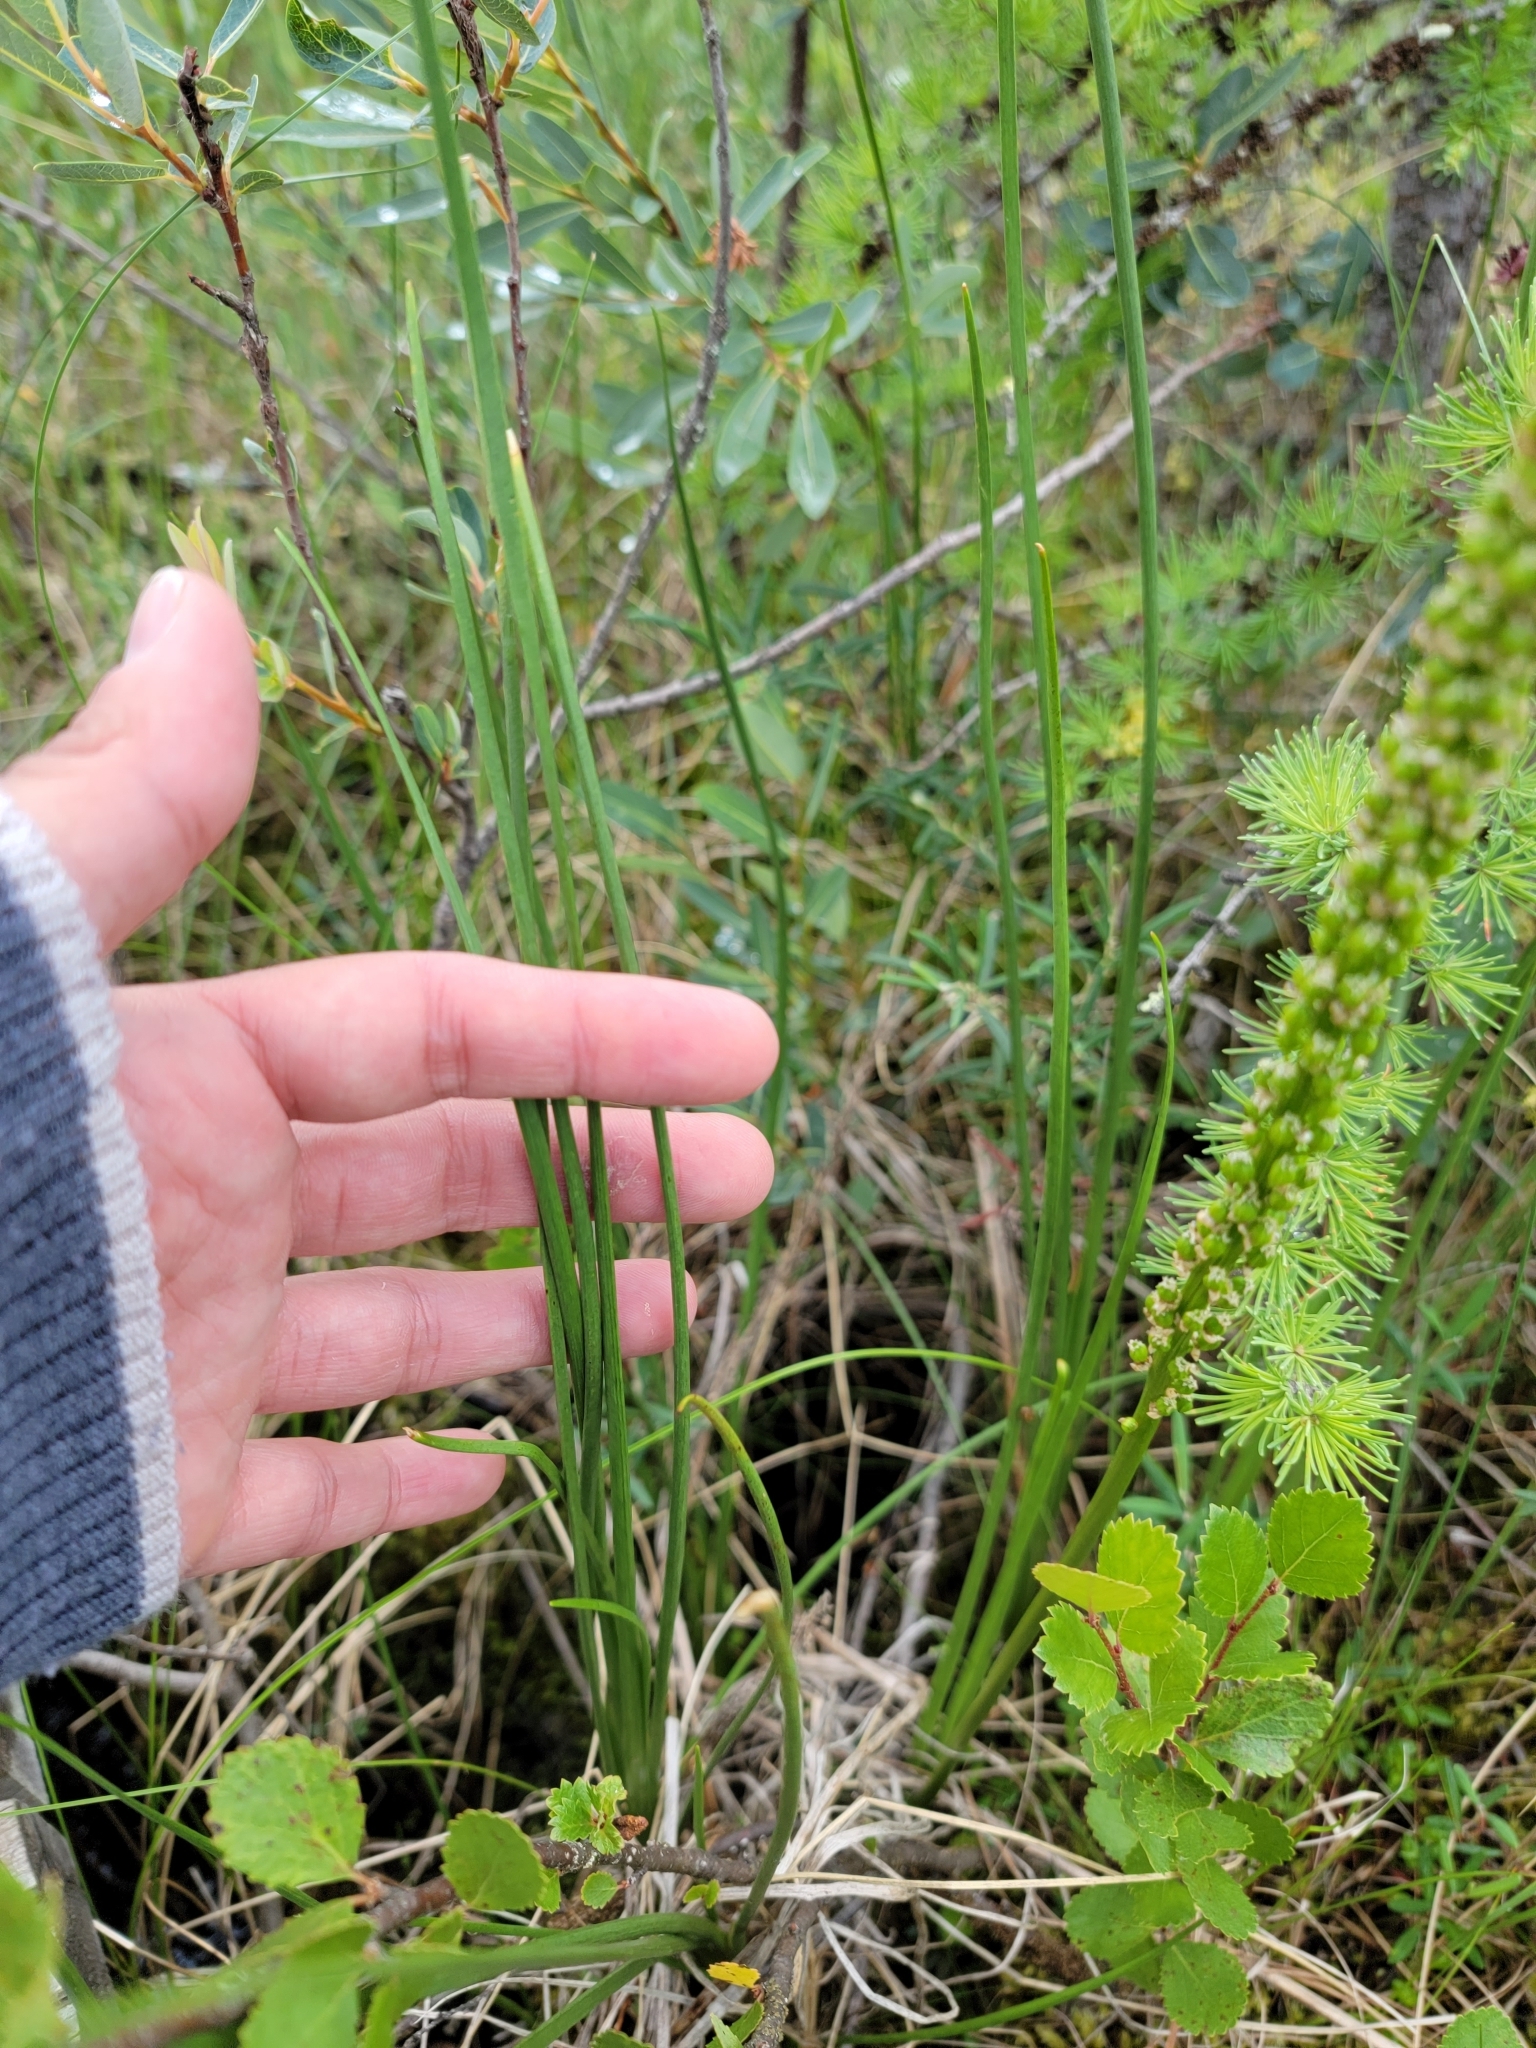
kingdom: Plantae
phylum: Tracheophyta
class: Liliopsida
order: Alismatales
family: Juncaginaceae
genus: Triglochin
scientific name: Triglochin maritima
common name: Sea arrowgrass
